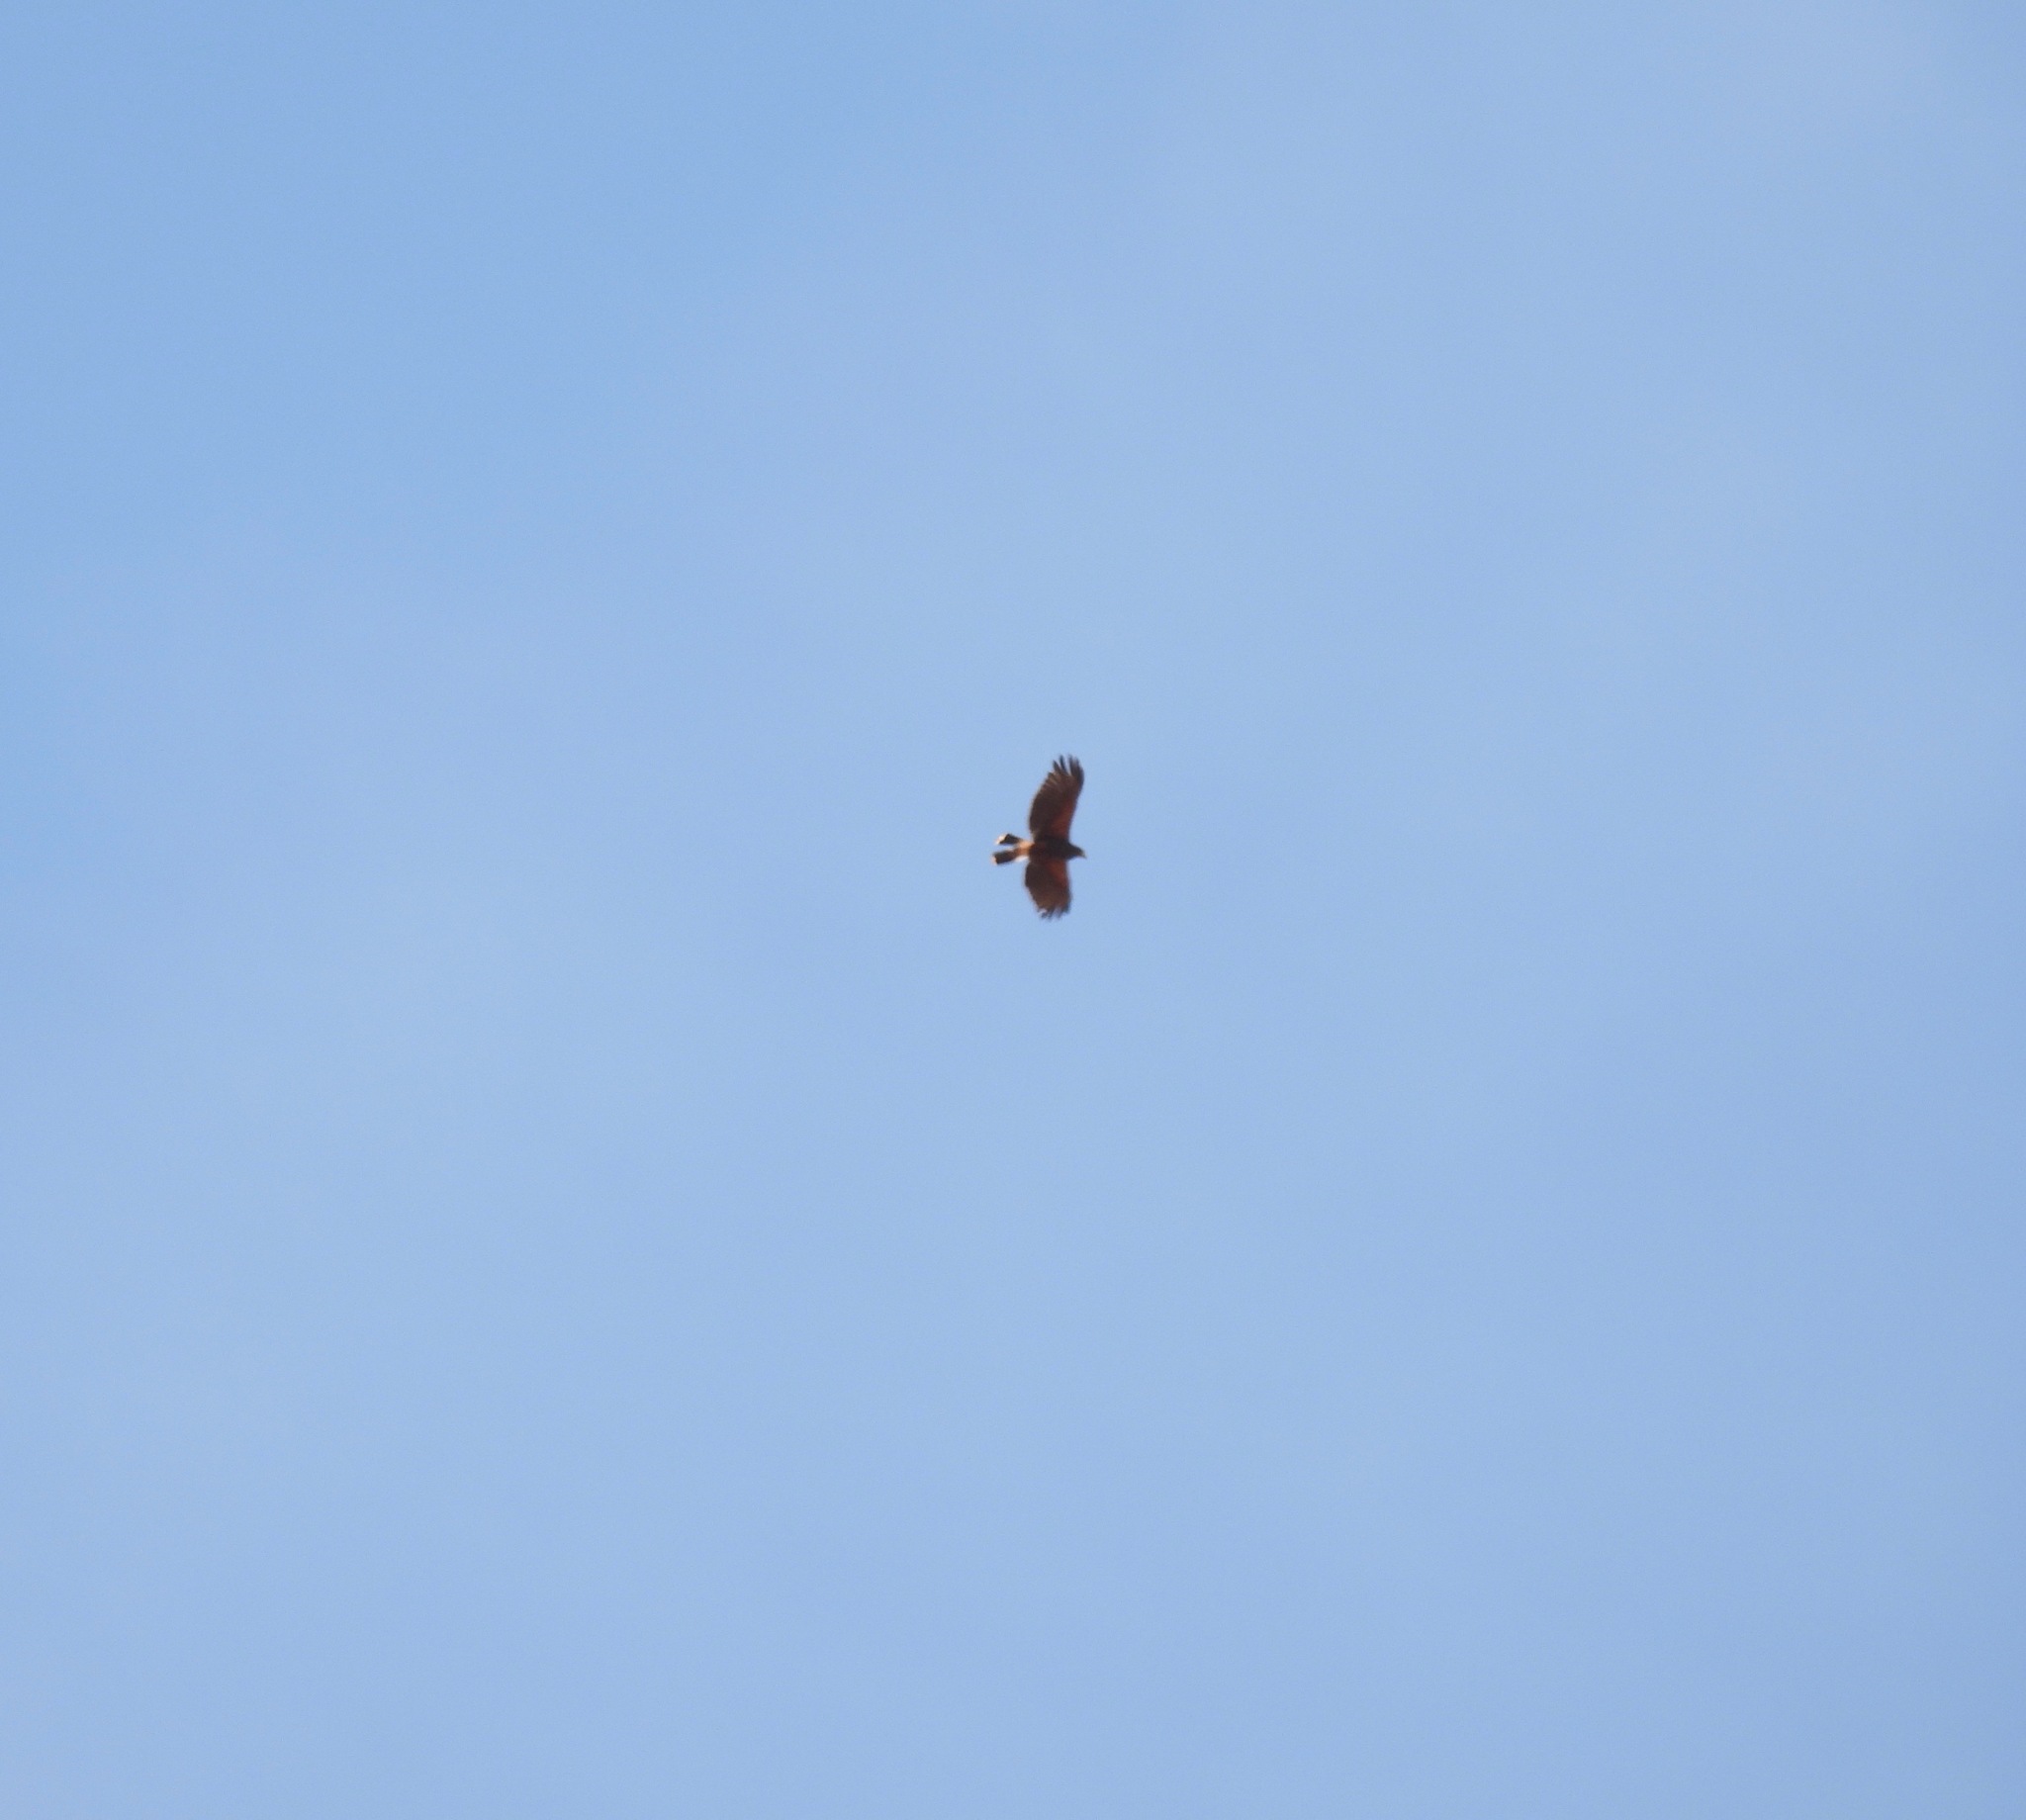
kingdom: Animalia
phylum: Chordata
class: Aves
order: Accipitriformes
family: Accipitridae
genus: Parabuteo
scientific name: Parabuteo unicinctus
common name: Harris's hawk
